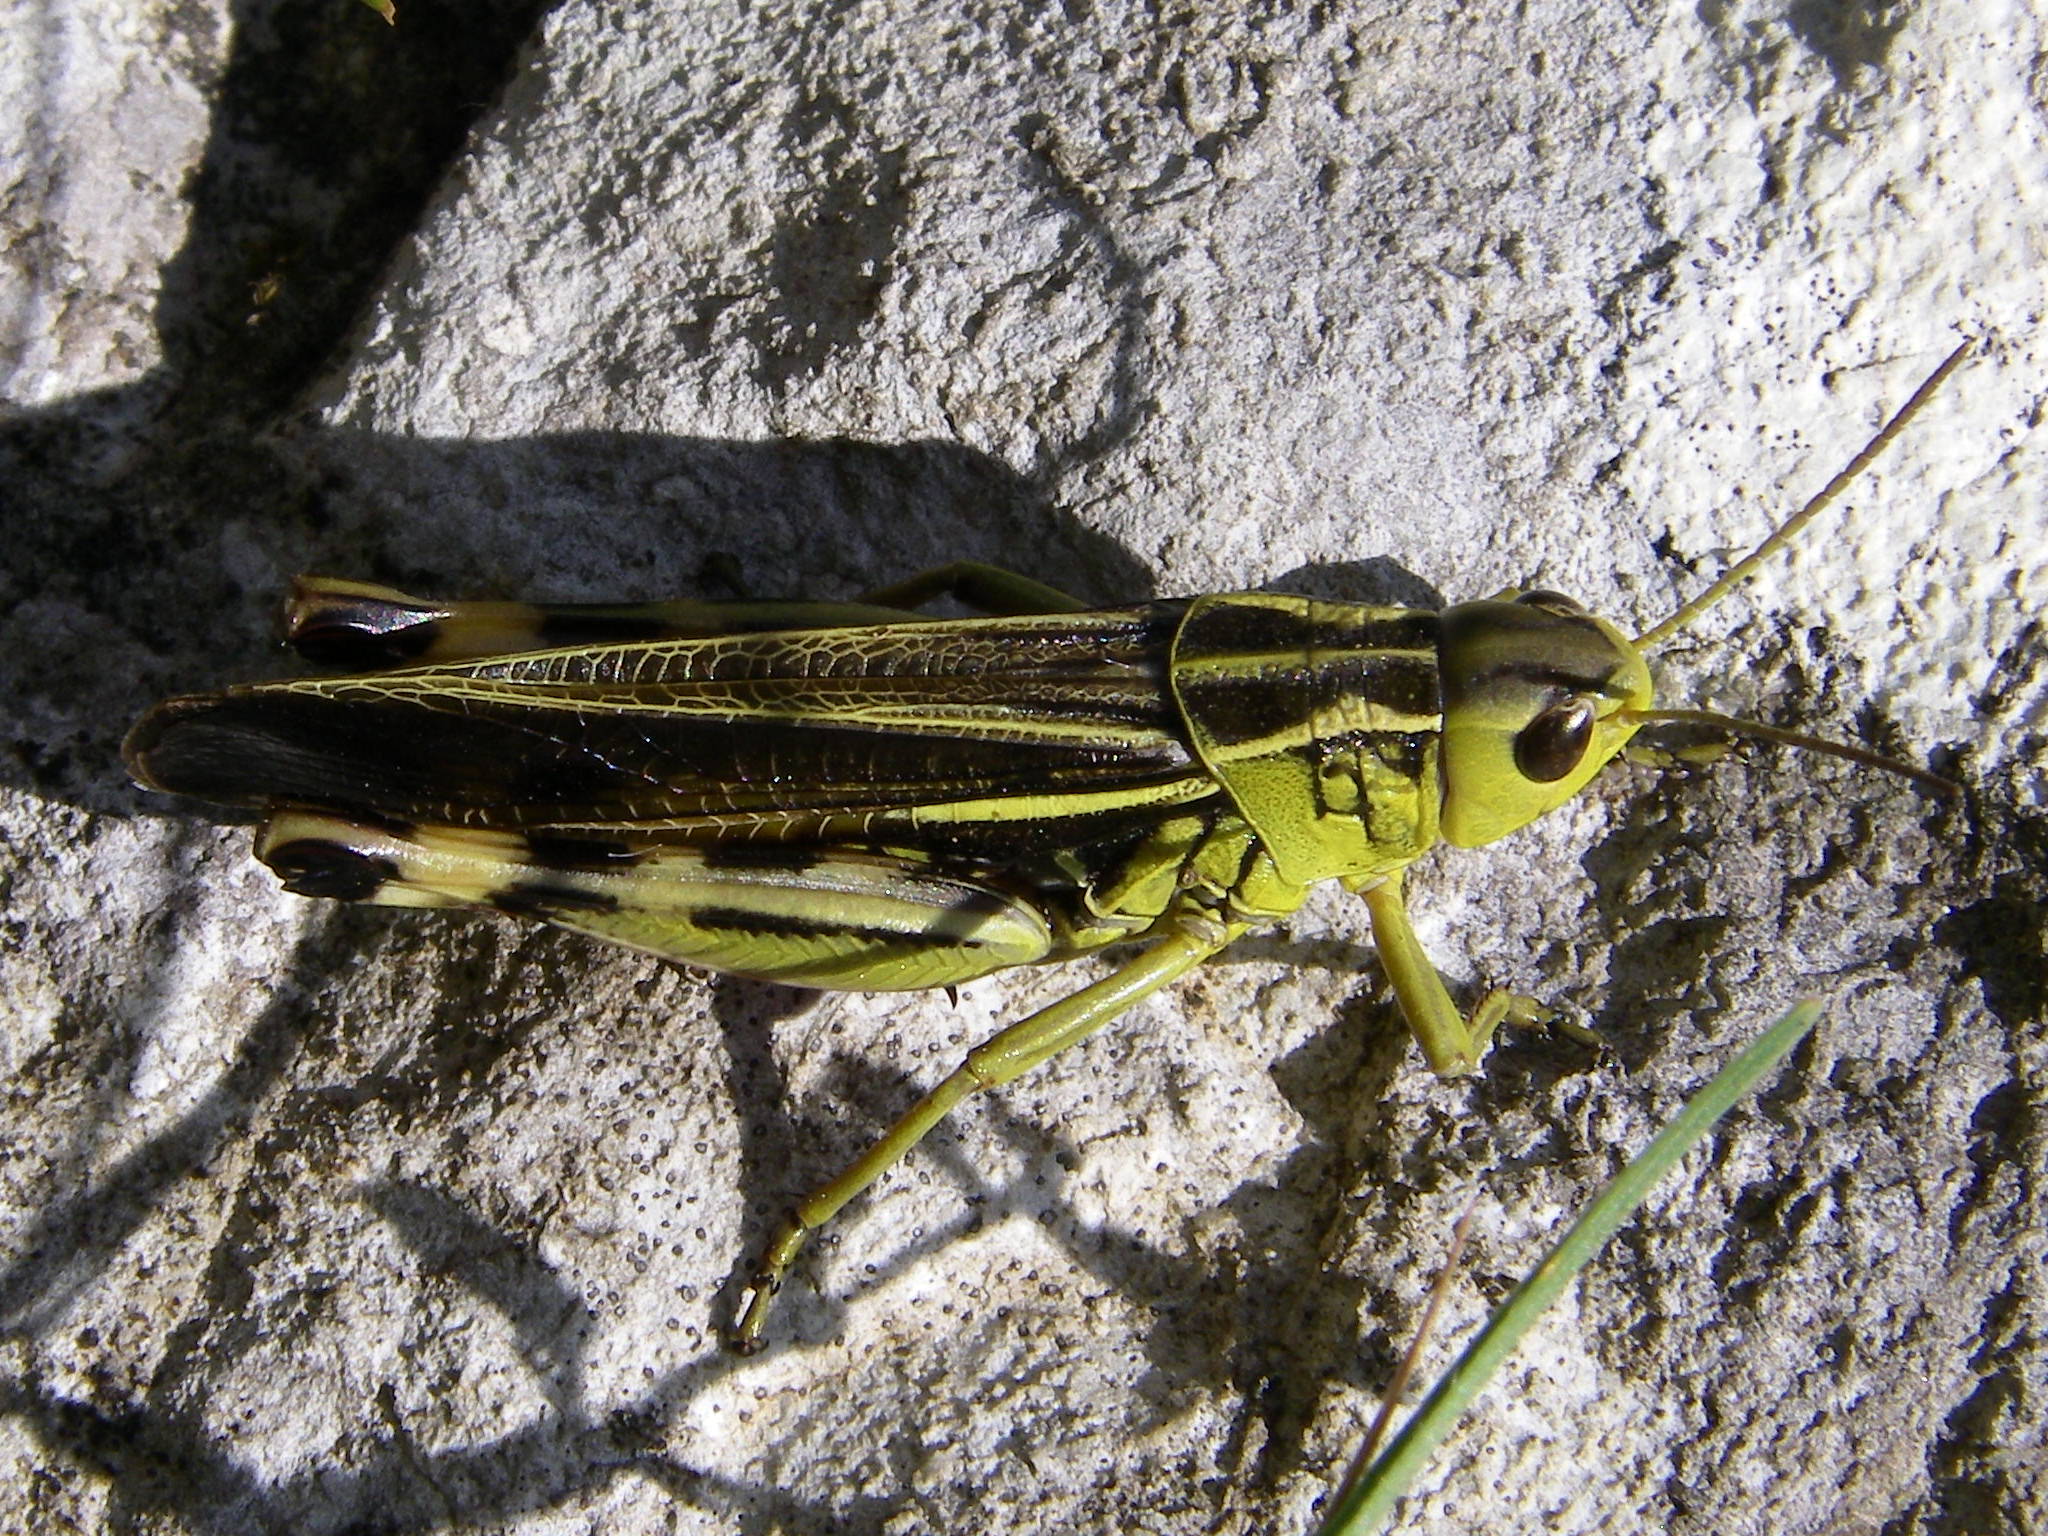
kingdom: Animalia
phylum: Arthropoda
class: Insecta
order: Orthoptera
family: Acrididae
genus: Arcyptera
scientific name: Arcyptera fusca
